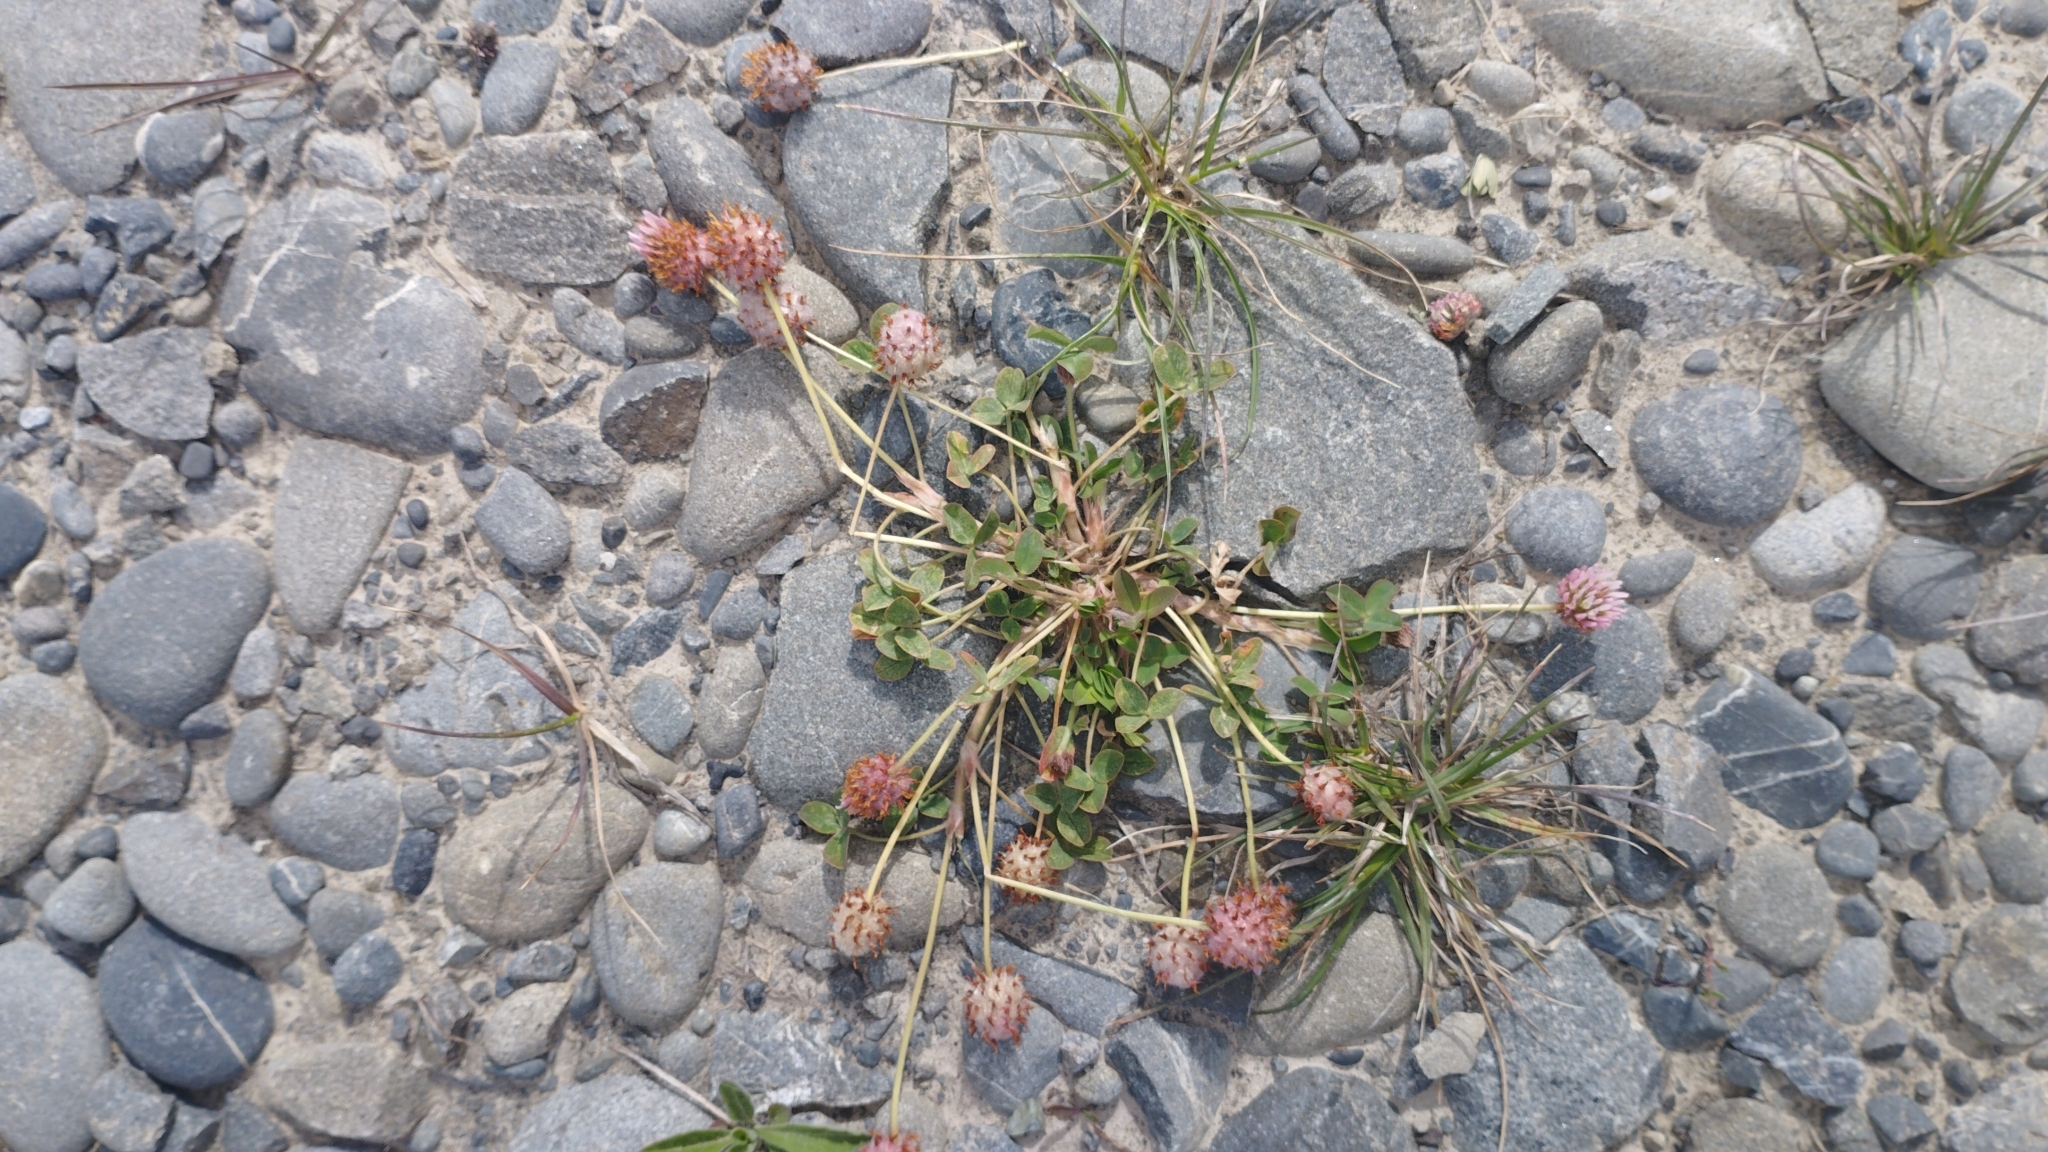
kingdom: Plantae
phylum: Tracheophyta
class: Magnoliopsida
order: Fabales
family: Fabaceae
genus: Trifolium
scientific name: Trifolium fragiferum
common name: Strawberry clover
